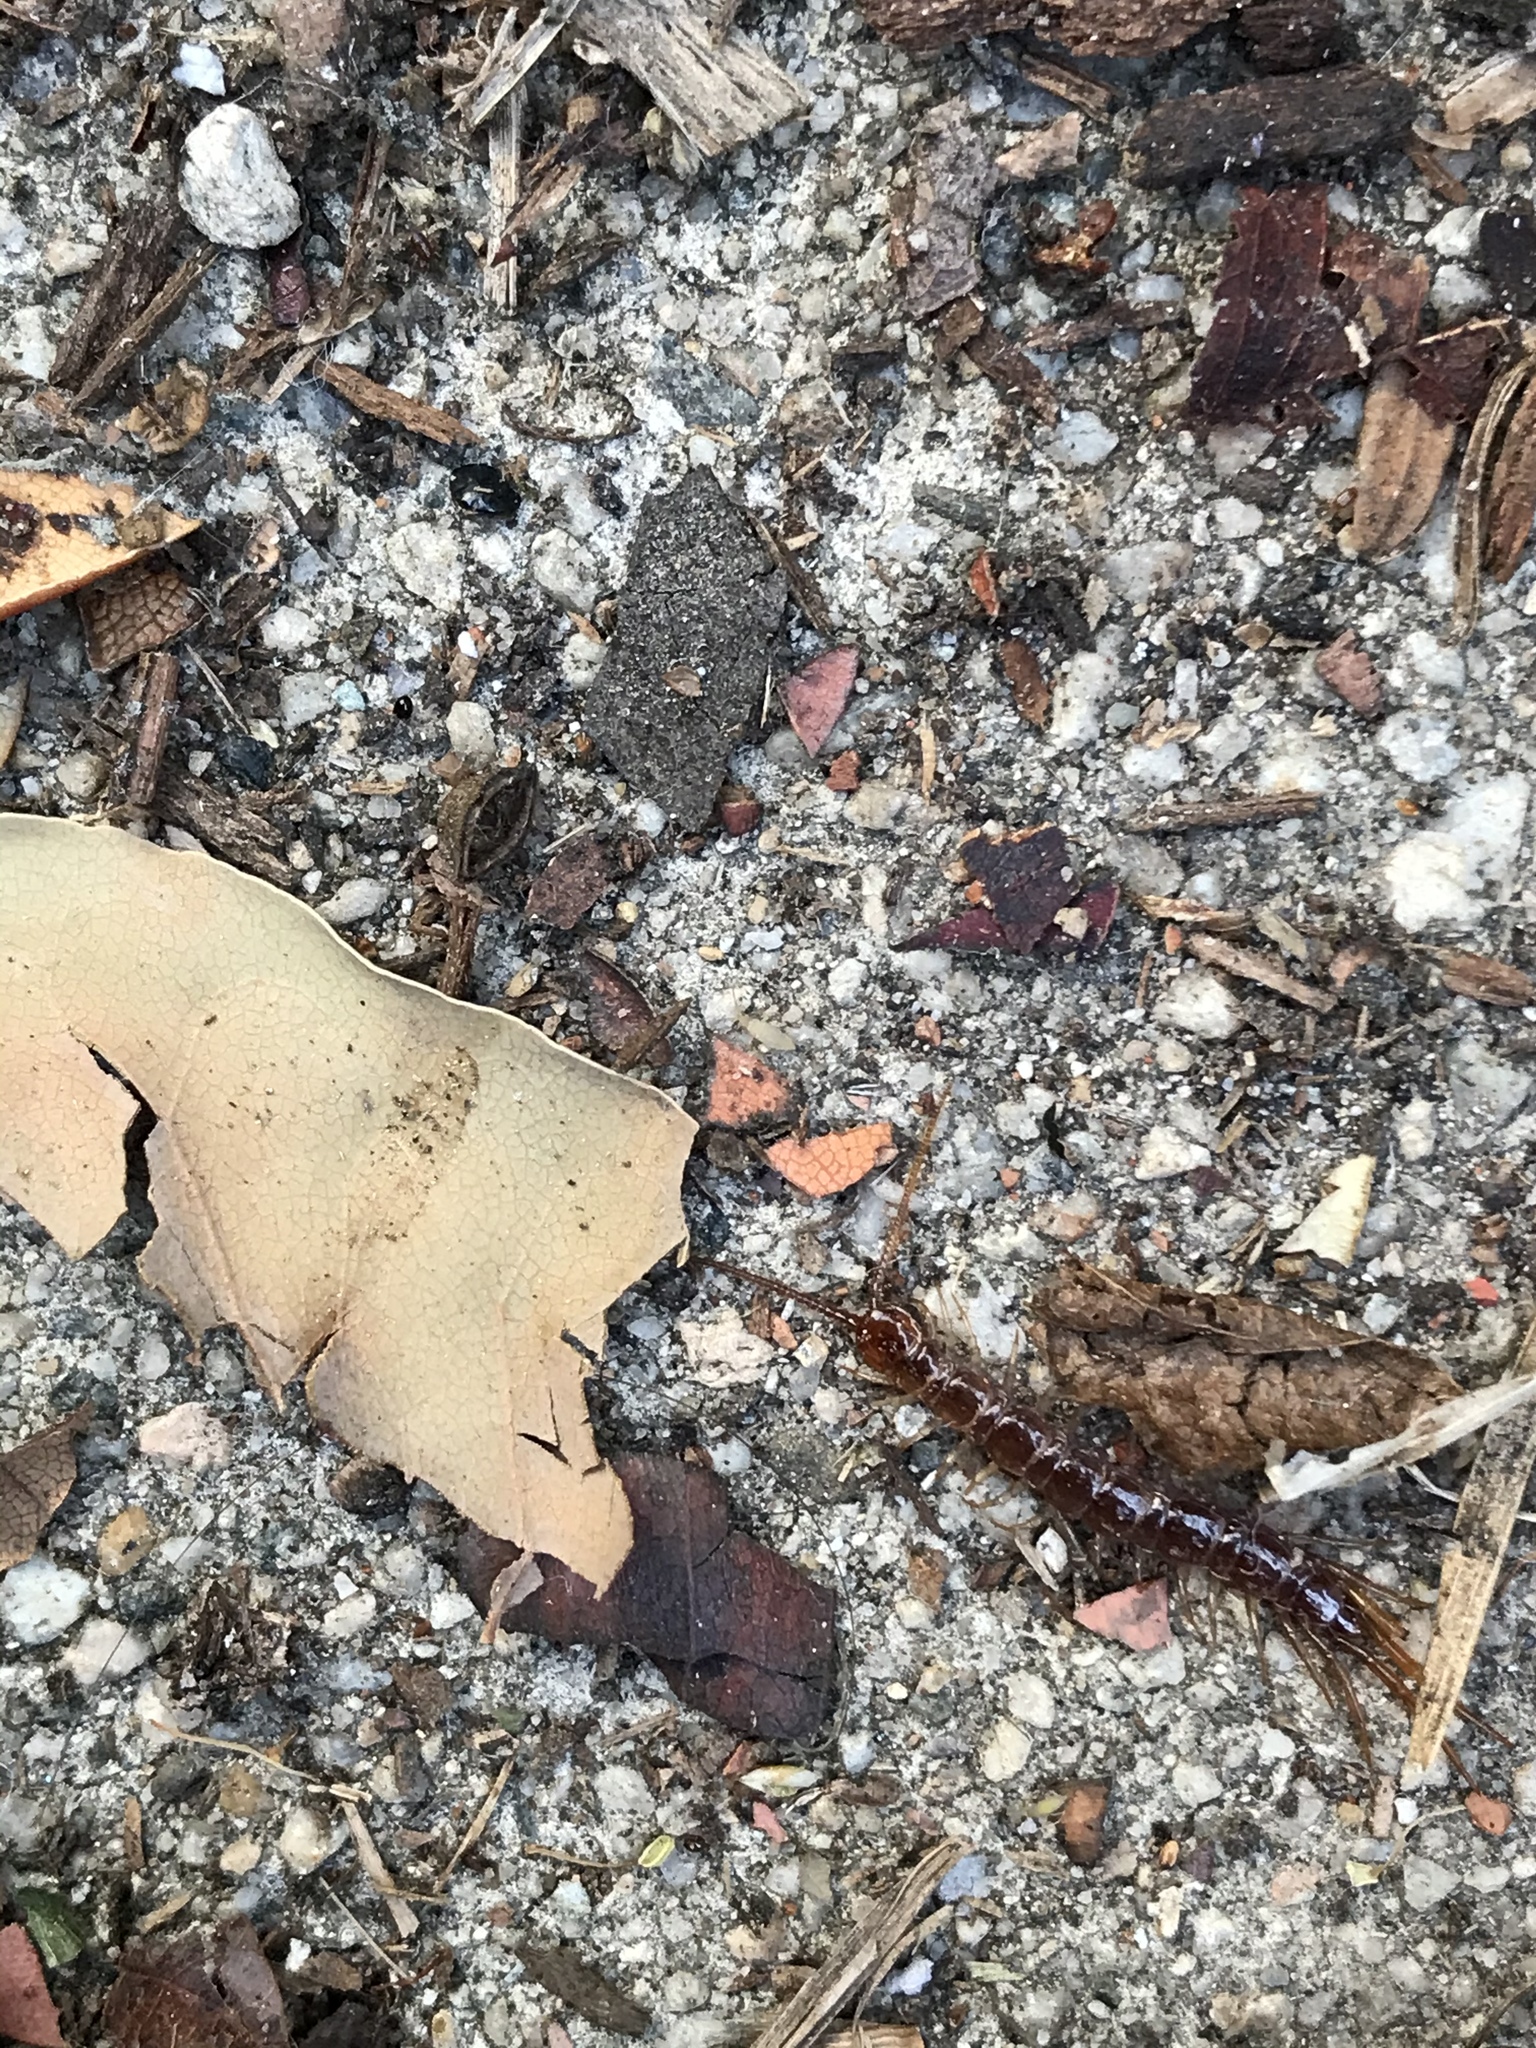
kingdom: Animalia
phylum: Arthropoda
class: Chilopoda
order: Lithobiomorpha
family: Lithobiidae
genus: Lithobius
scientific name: Lithobius
